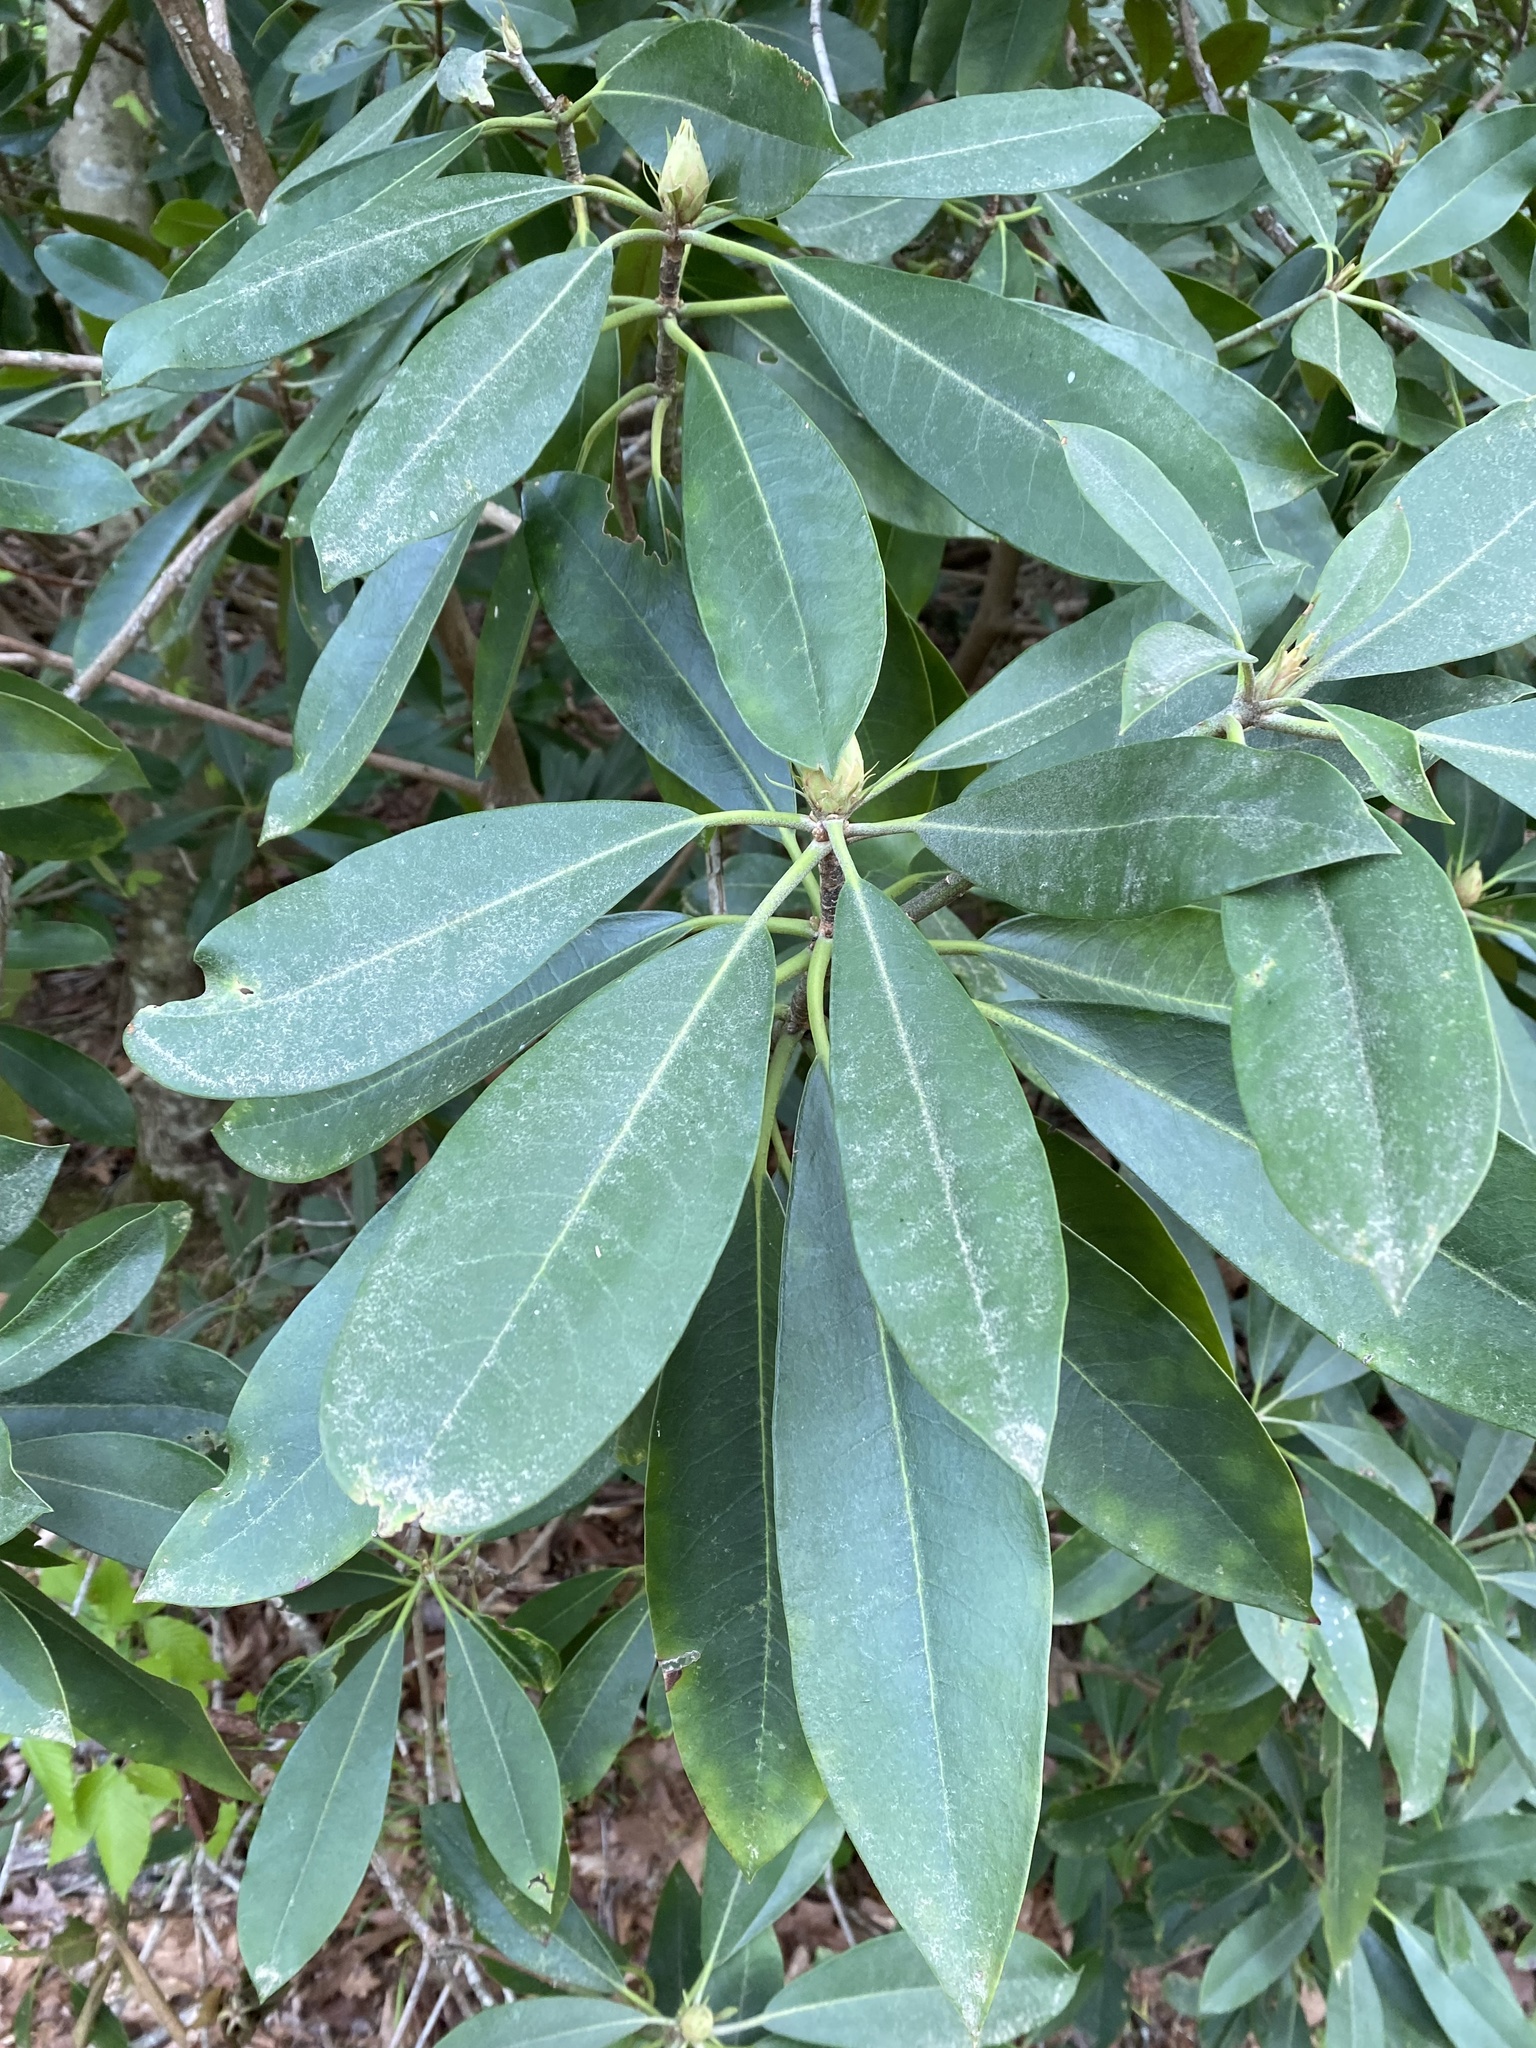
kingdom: Plantae
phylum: Tracheophyta
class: Magnoliopsida
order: Ericales
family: Ericaceae
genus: Rhododendron
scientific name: Rhododendron maximum
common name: Great rhododendron
